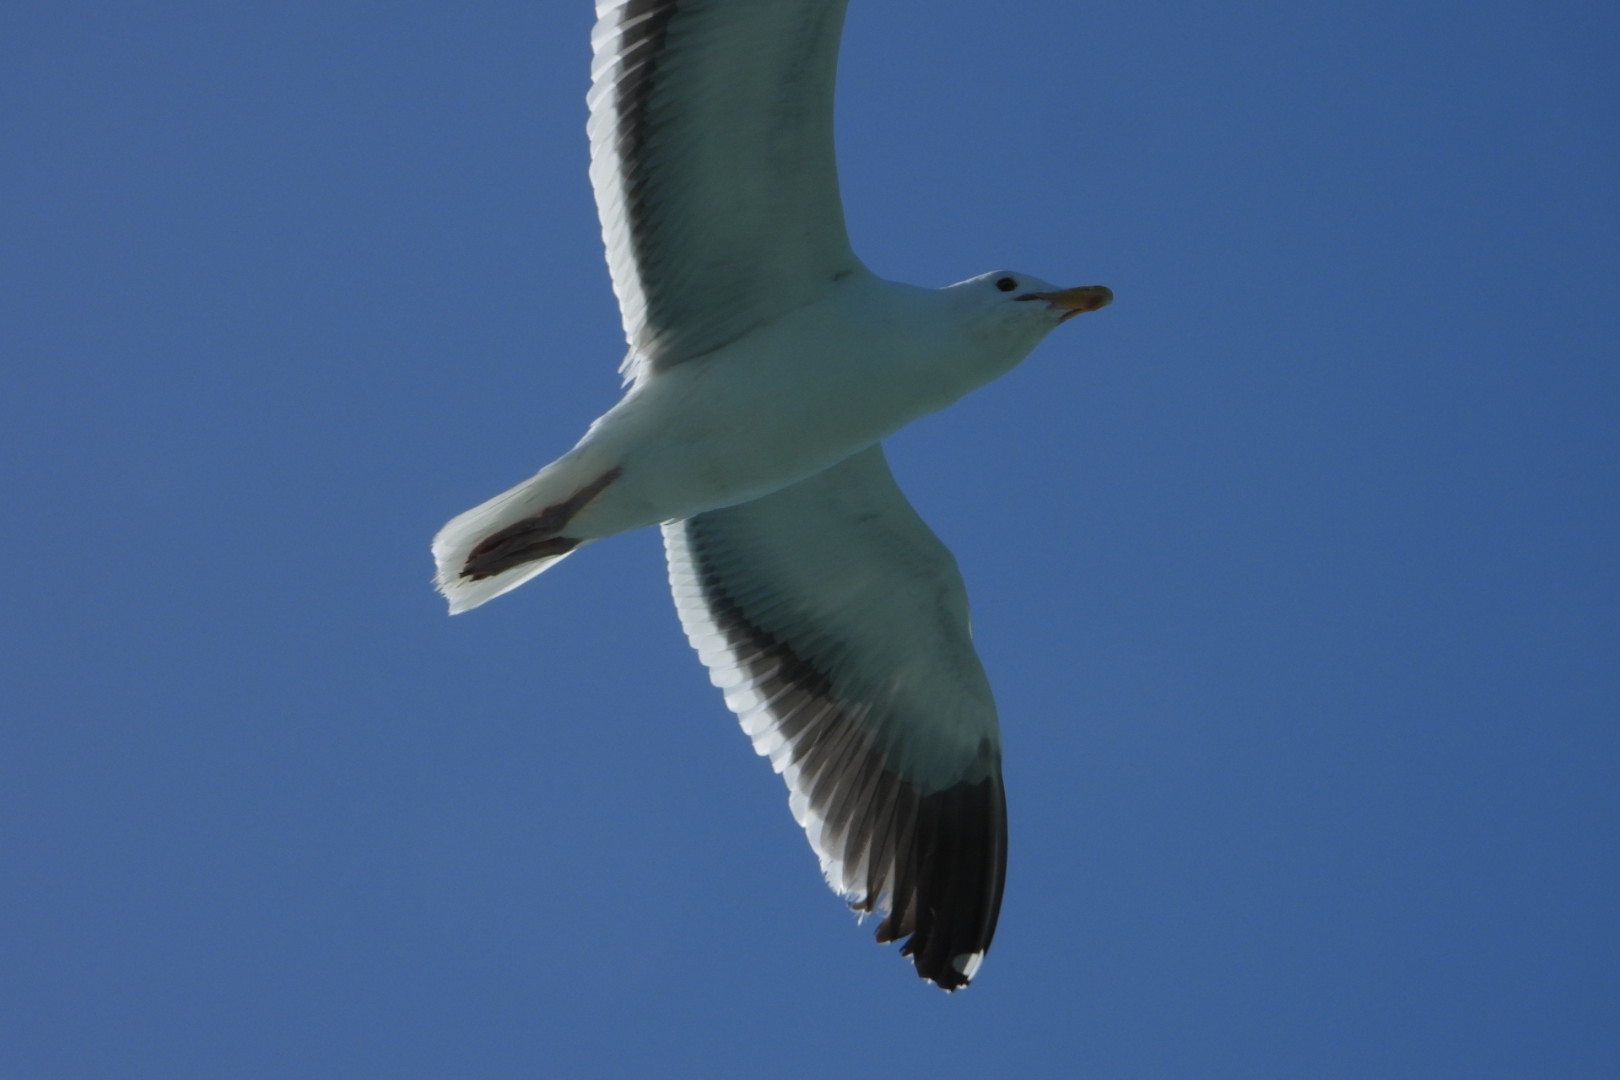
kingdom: Animalia
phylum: Chordata
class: Aves
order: Charadriiformes
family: Laridae
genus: Larus
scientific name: Larus occidentalis
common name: Western gull
